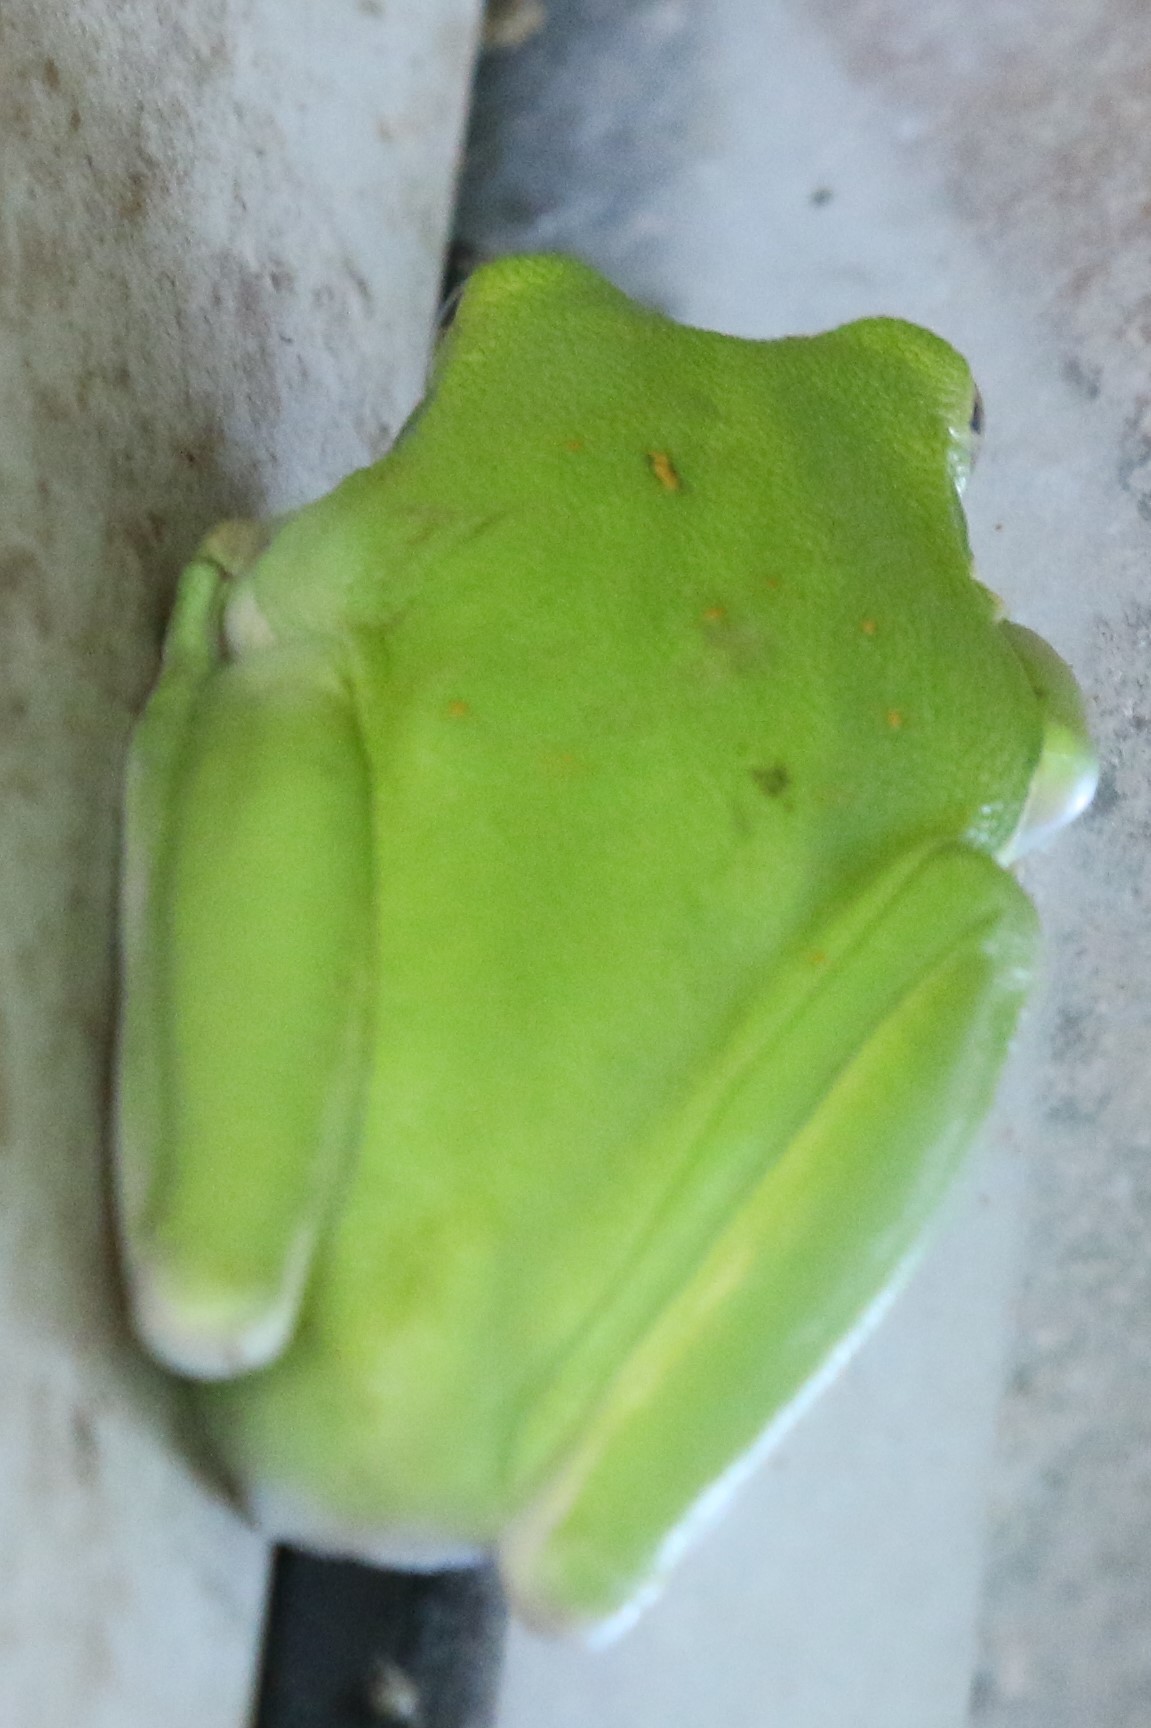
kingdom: Animalia
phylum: Chordata
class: Amphibia
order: Anura
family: Hylidae
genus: Dryophytes
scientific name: Dryophytes cinereus
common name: Green treefrog
